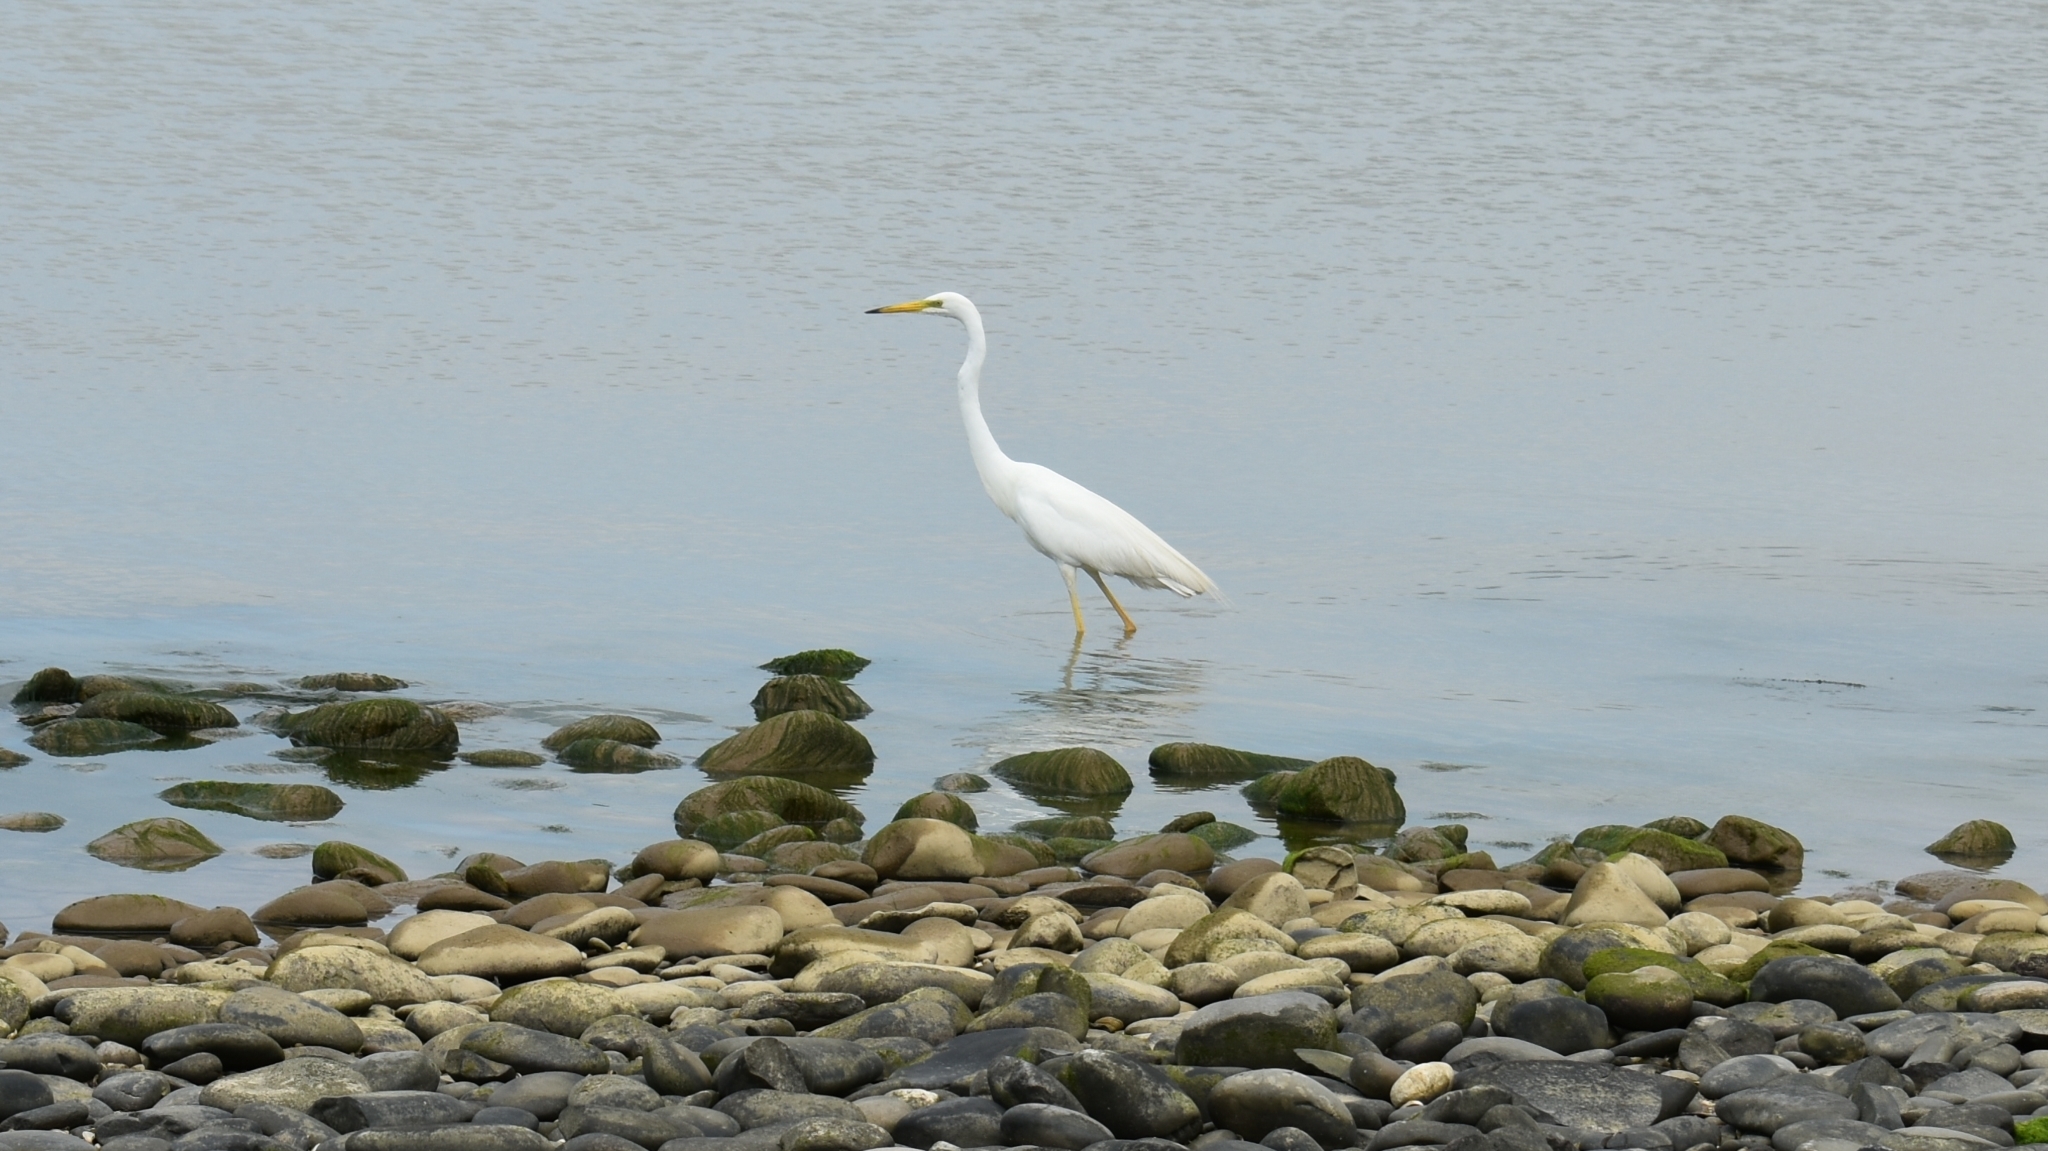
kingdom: Animalia
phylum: Chordata
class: Aves
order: Pelecaniformes
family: Ardeidae
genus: Ardea
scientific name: Ardea alba
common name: Great egret
